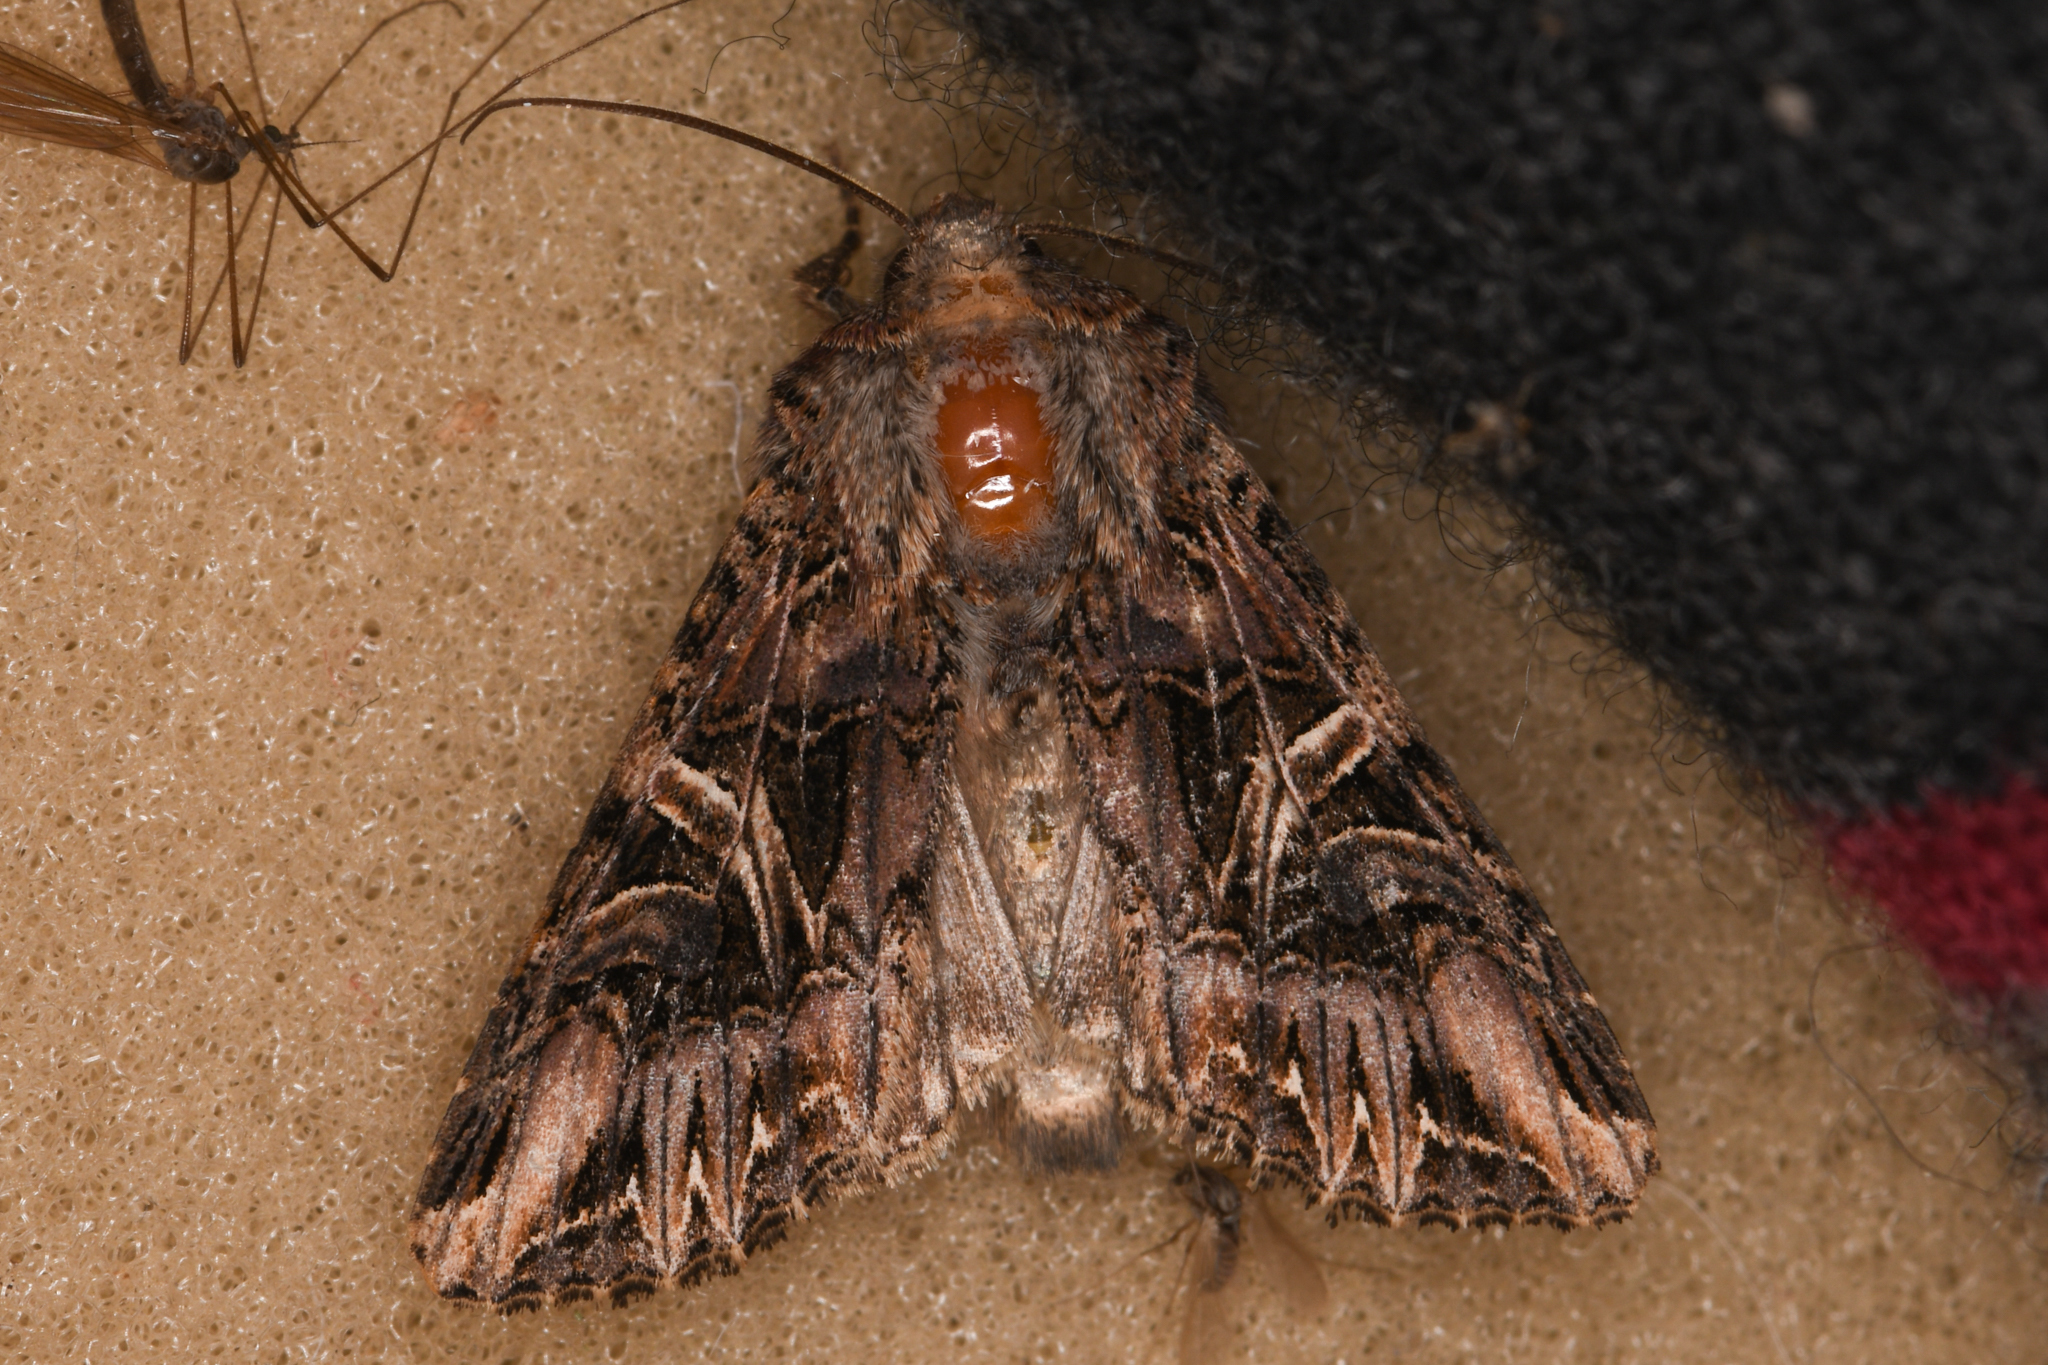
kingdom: Animalia
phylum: Arthropoda
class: Insecta
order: Lepidoptera
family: Noctuidae
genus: Anarta
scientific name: Anarta farnhami
